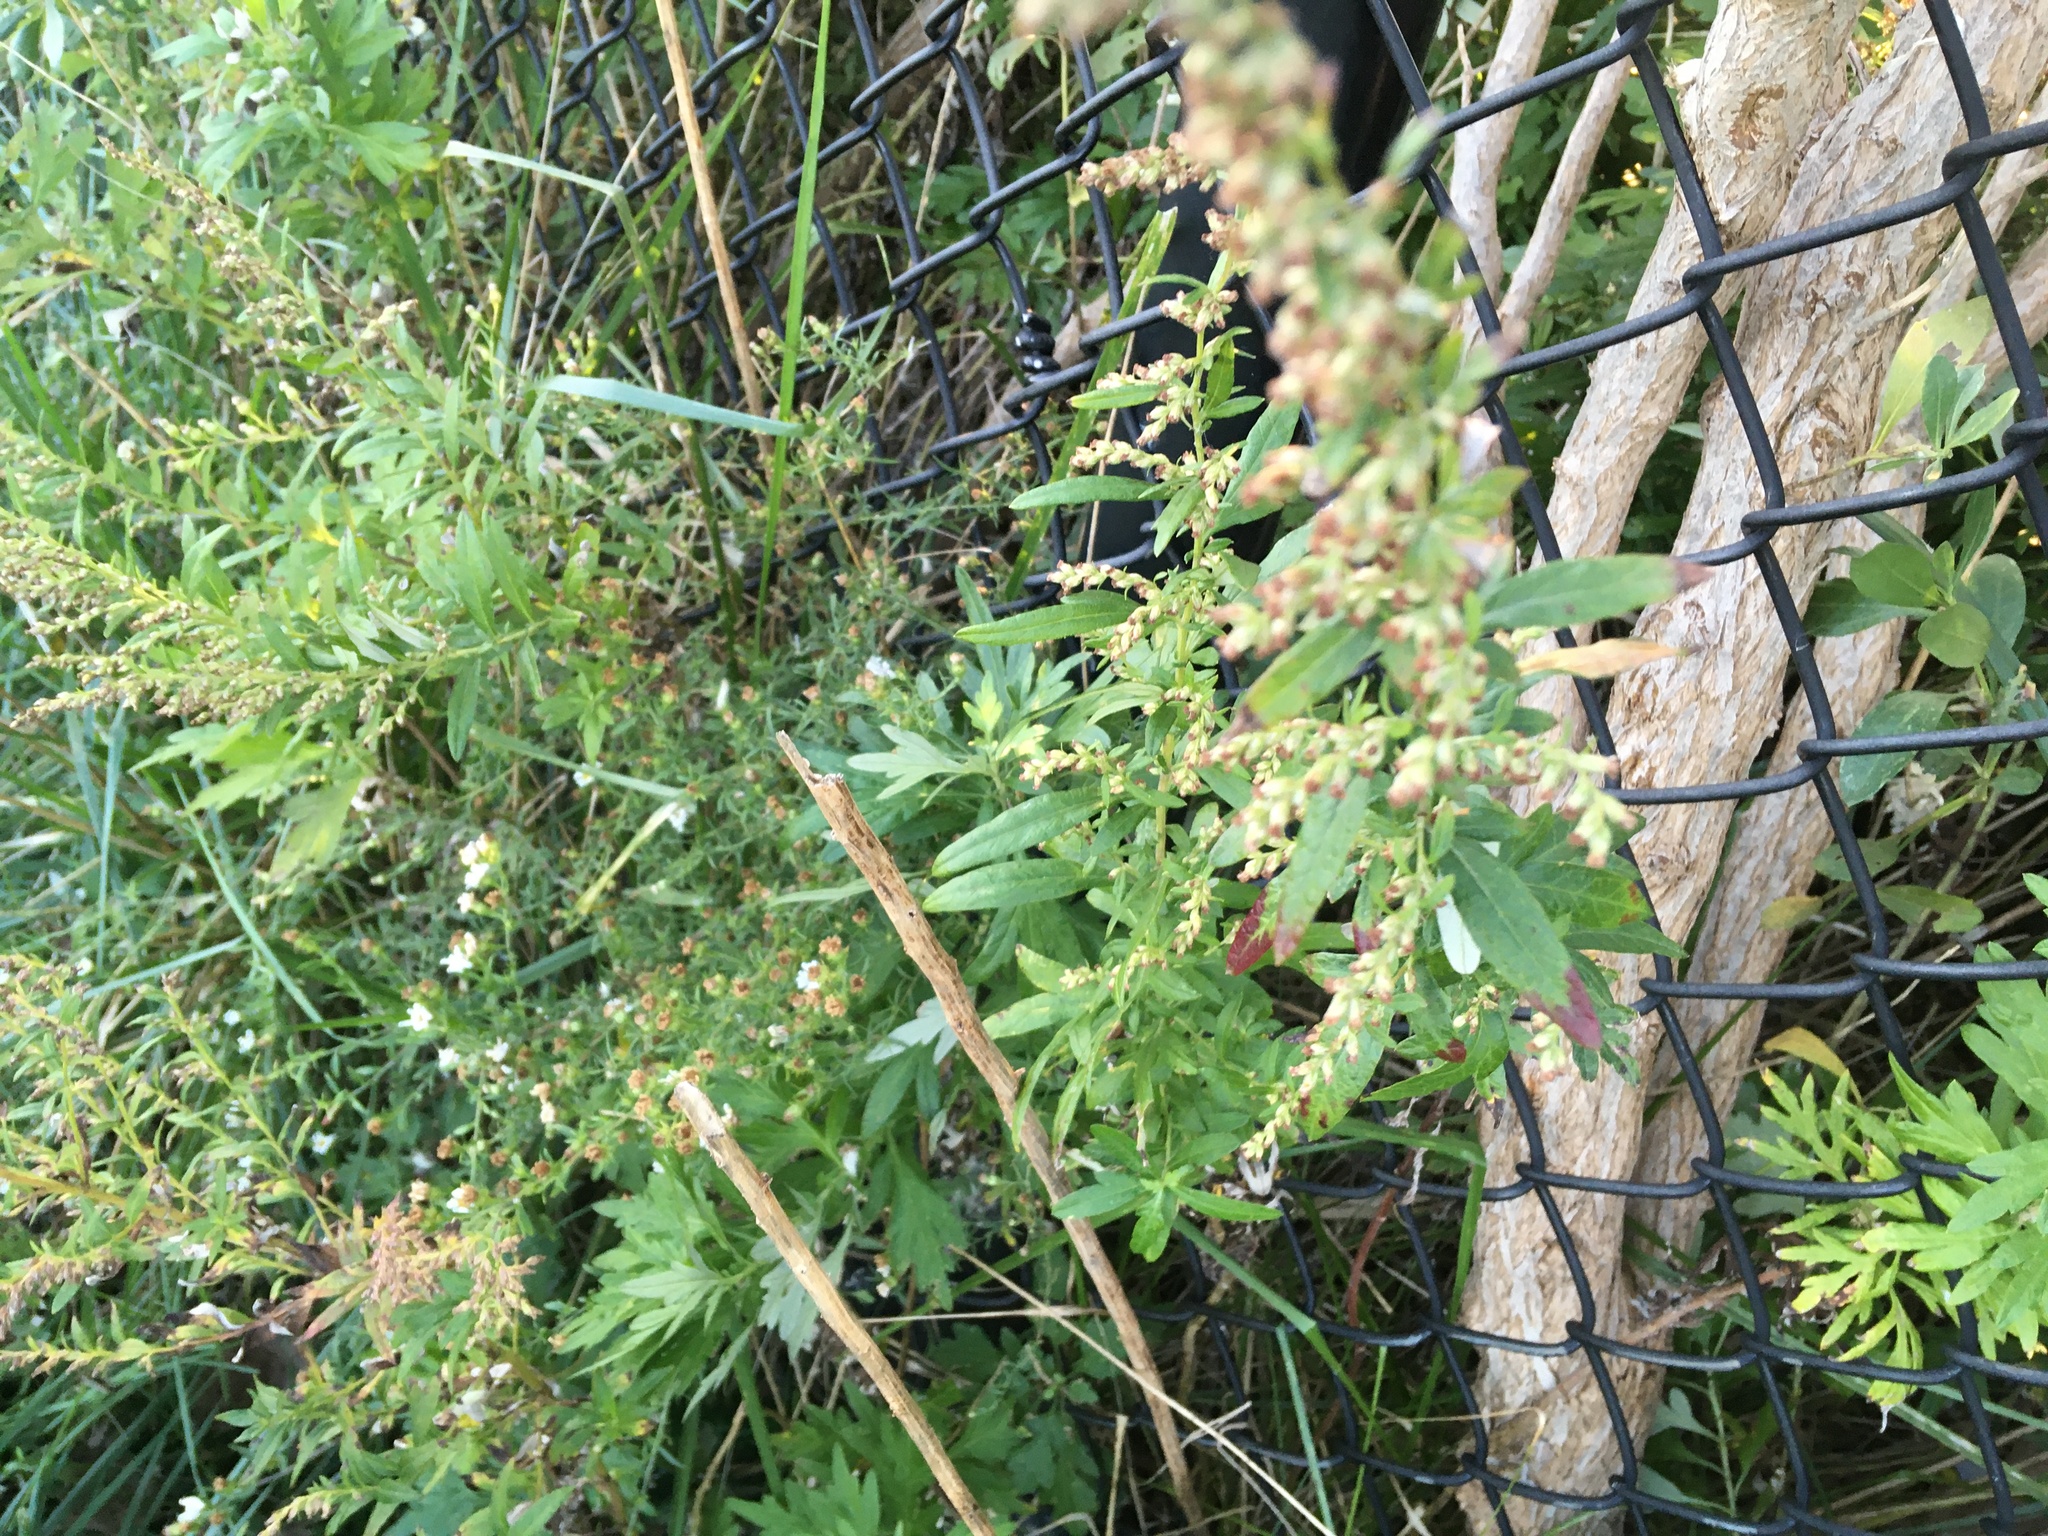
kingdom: Plantae
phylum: Tracheophyta
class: Magnoliopsida
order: Asterales
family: Asteraceae
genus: Artemisia
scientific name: Artemisia vulgaris
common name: Mugwort
